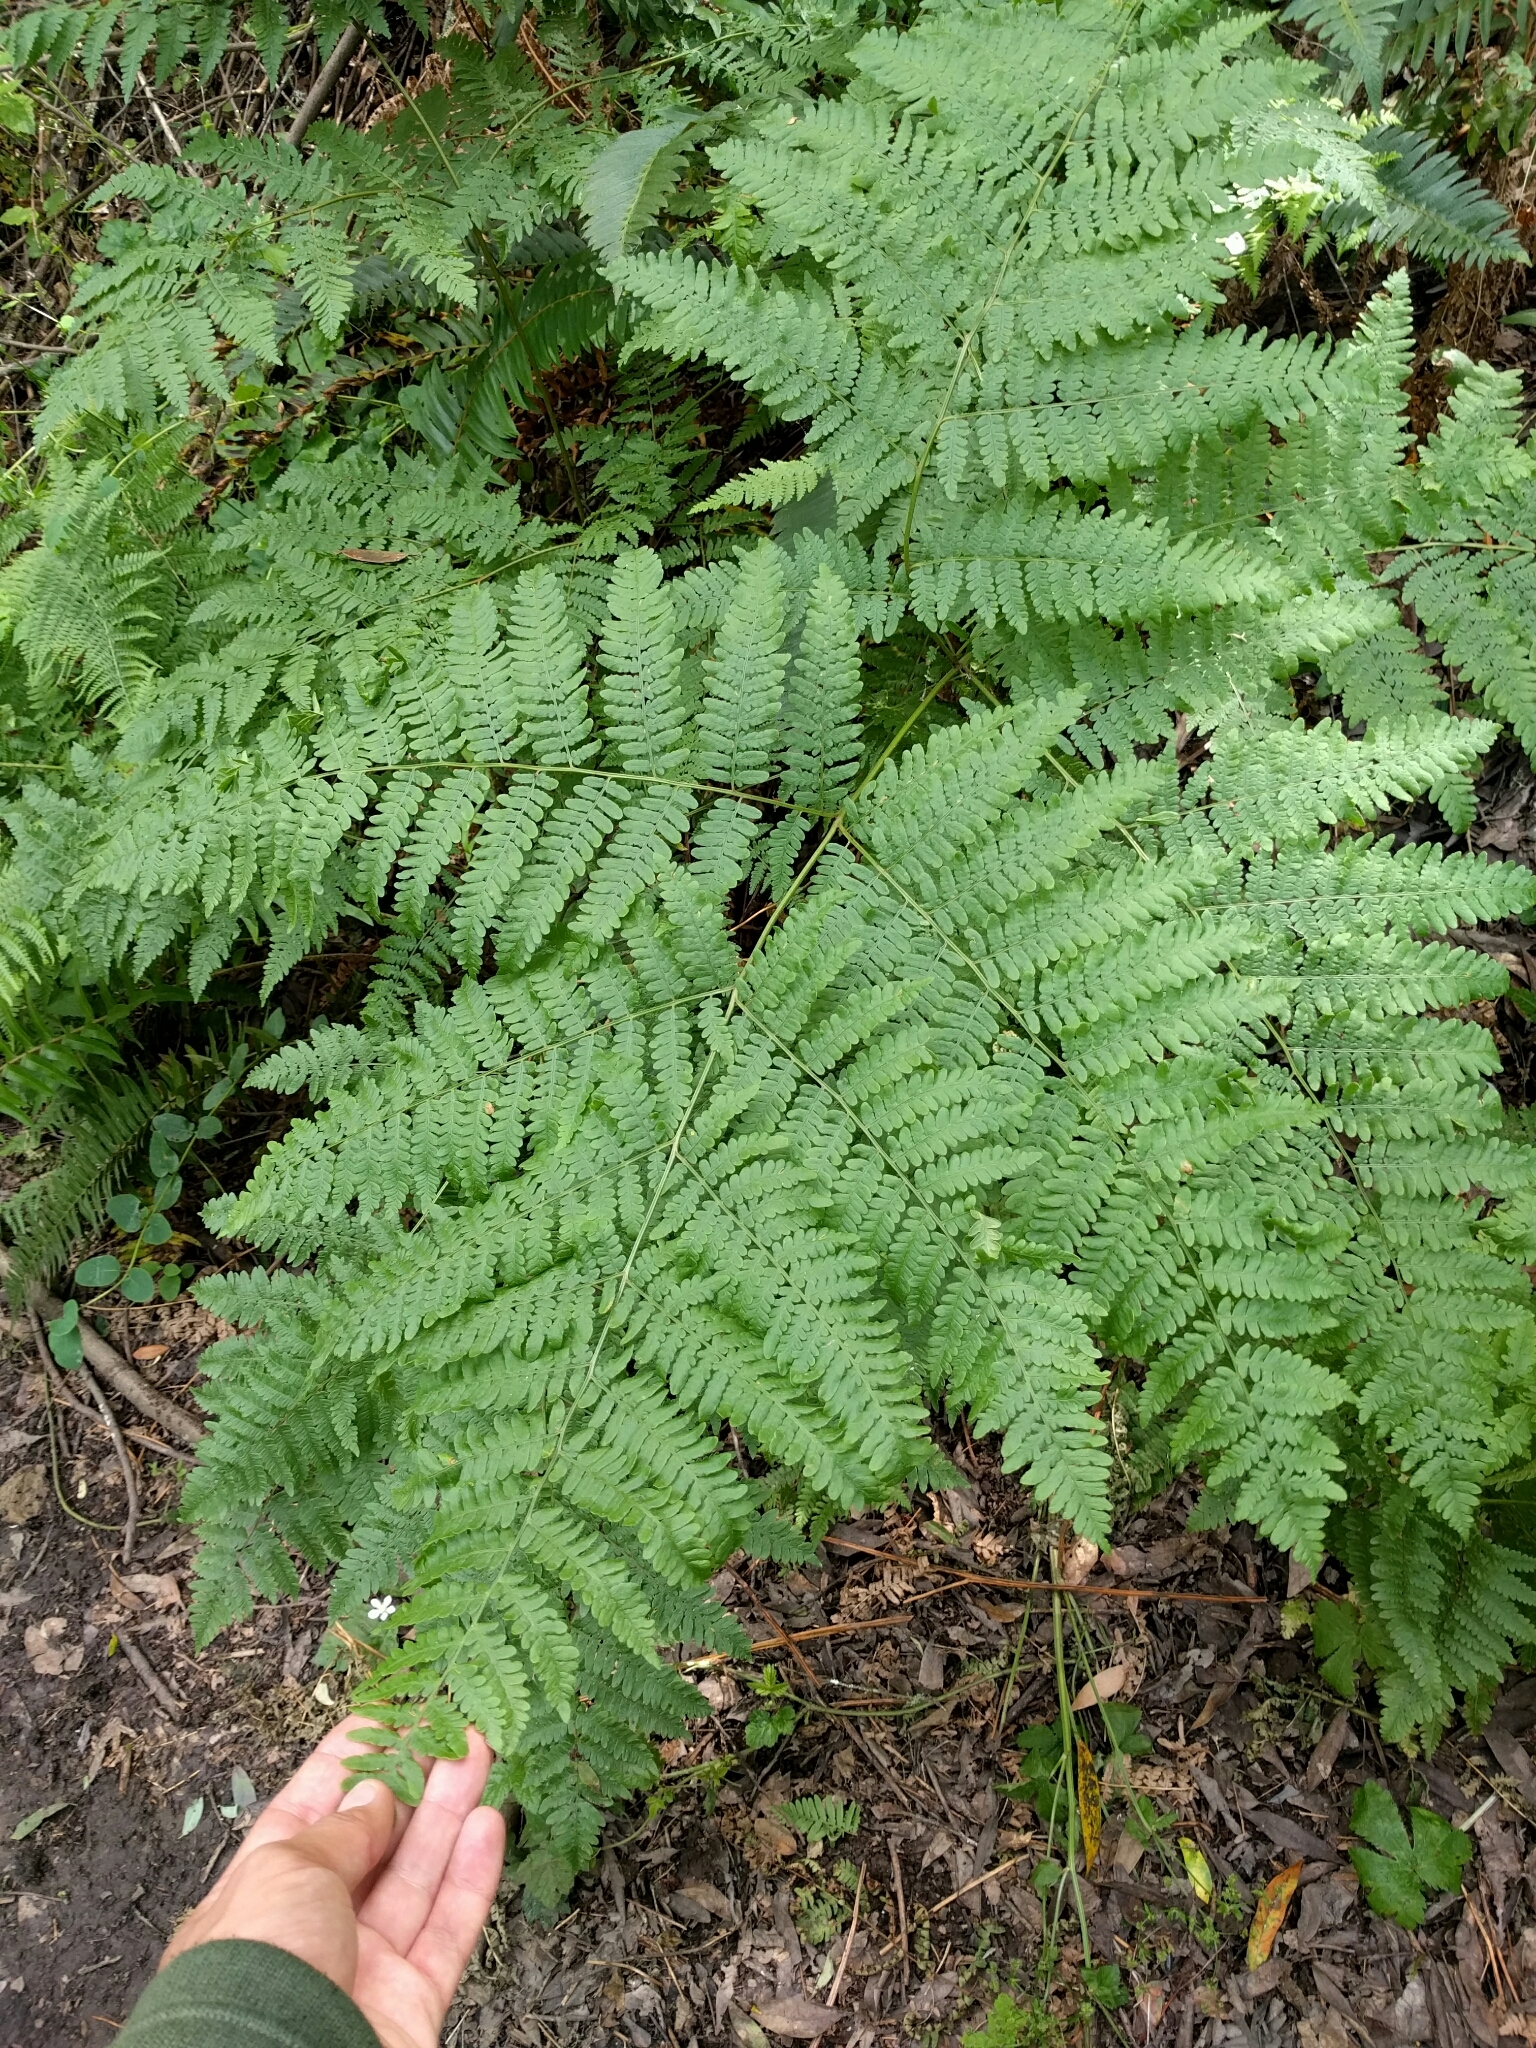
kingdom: Plantae
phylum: Tracheophyta
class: Polypodiopsida
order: Polypodiales
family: Dennstaedtiaceae
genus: Pteridium
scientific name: Pteridium aquilinum
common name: Bracken
